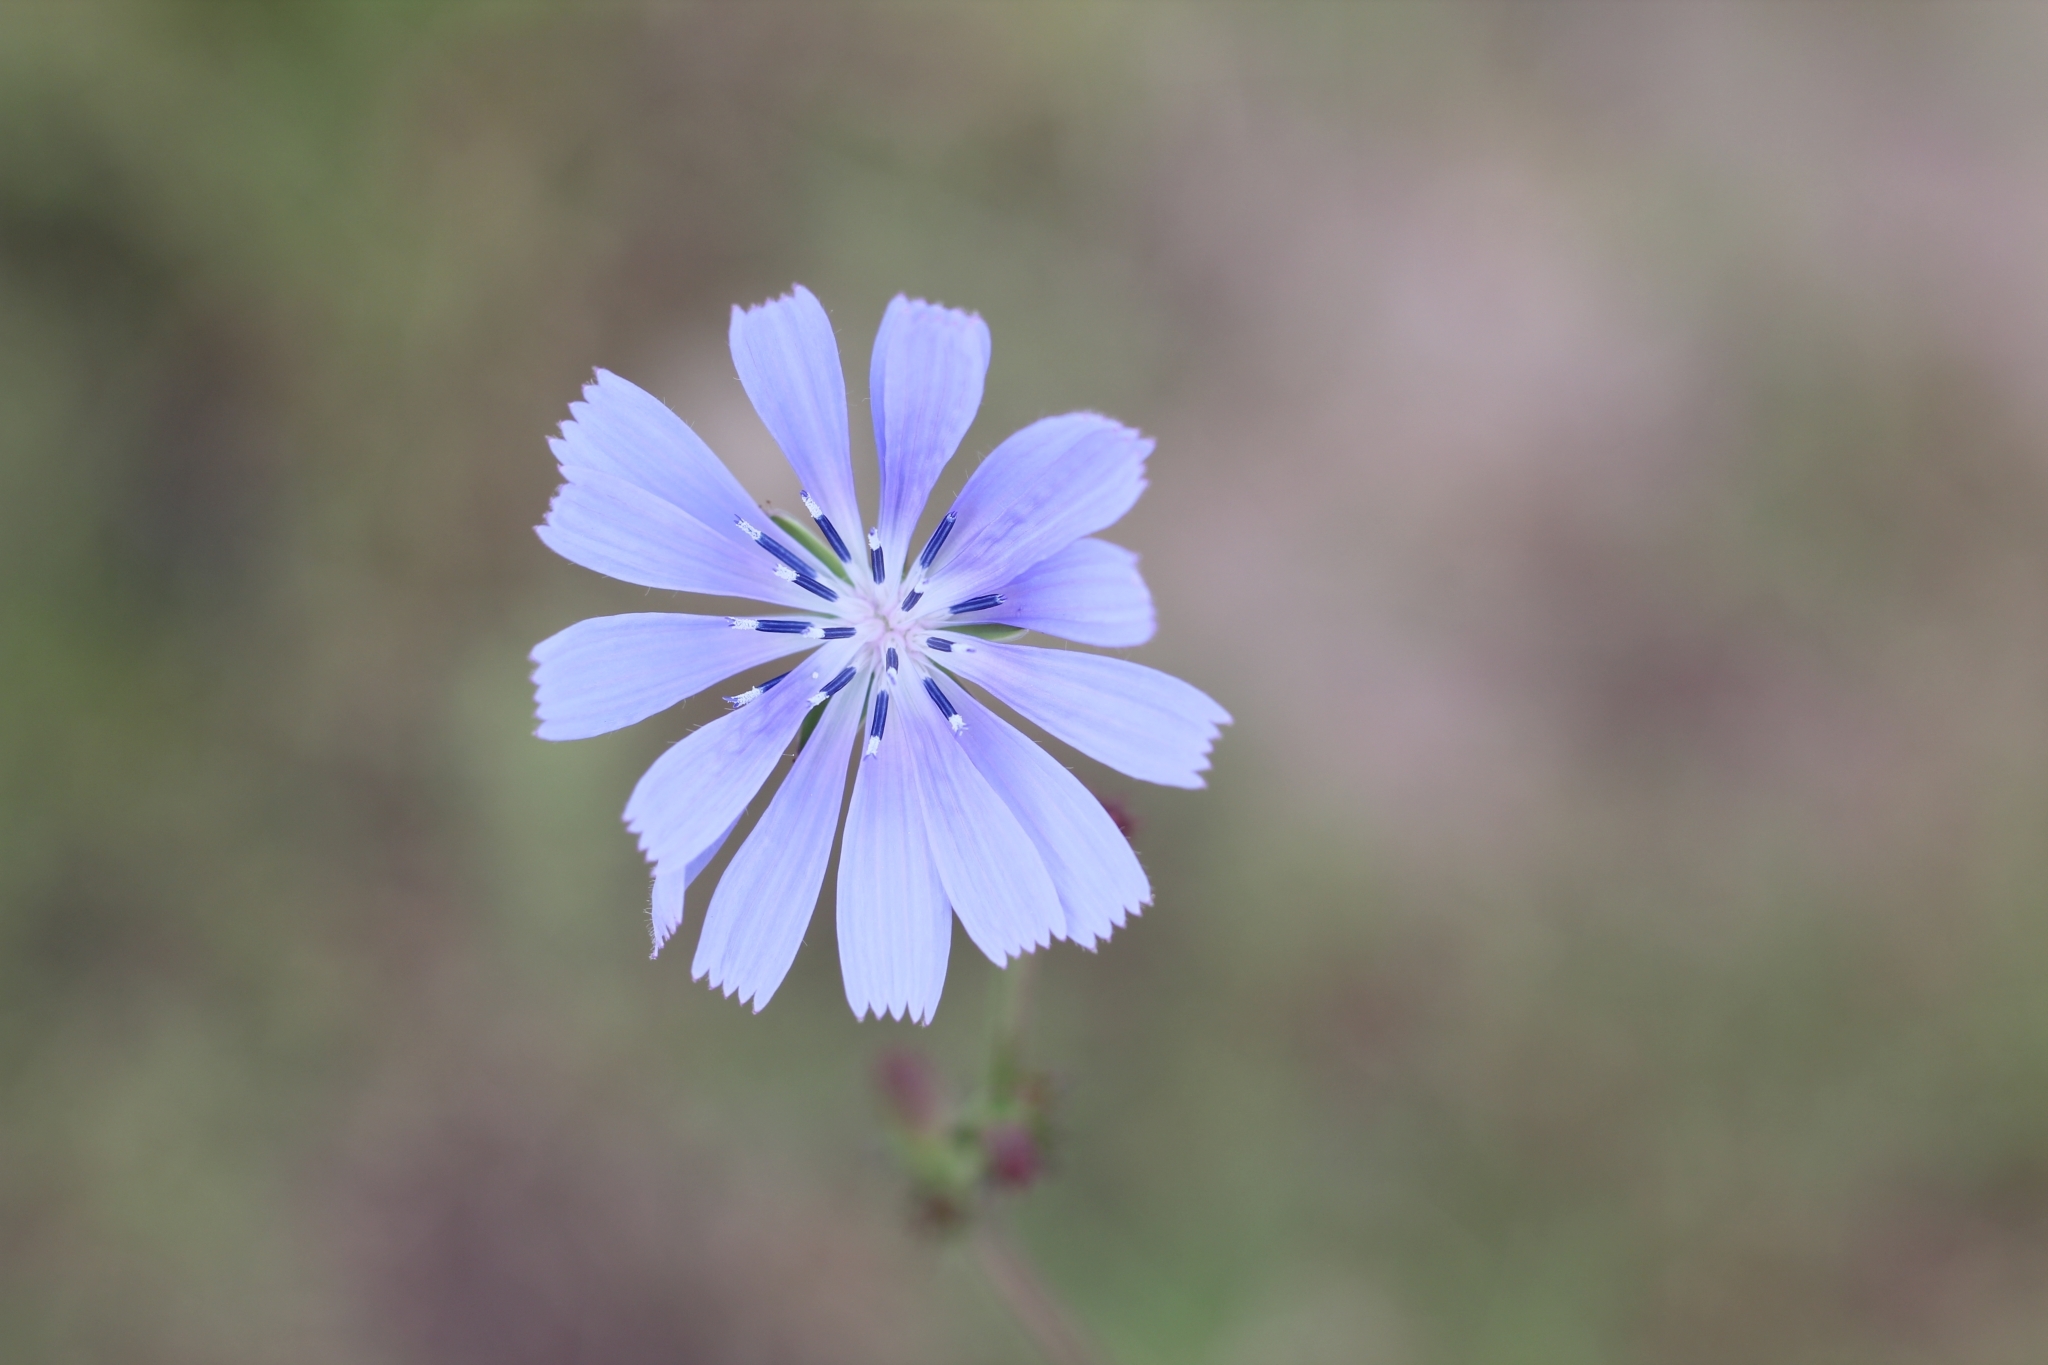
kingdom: Plantae
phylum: Tracheophyta
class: Magnoliopsida
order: Asterales
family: Asteraceae
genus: Cichorium
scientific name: Cichorium intybus
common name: Chicory
